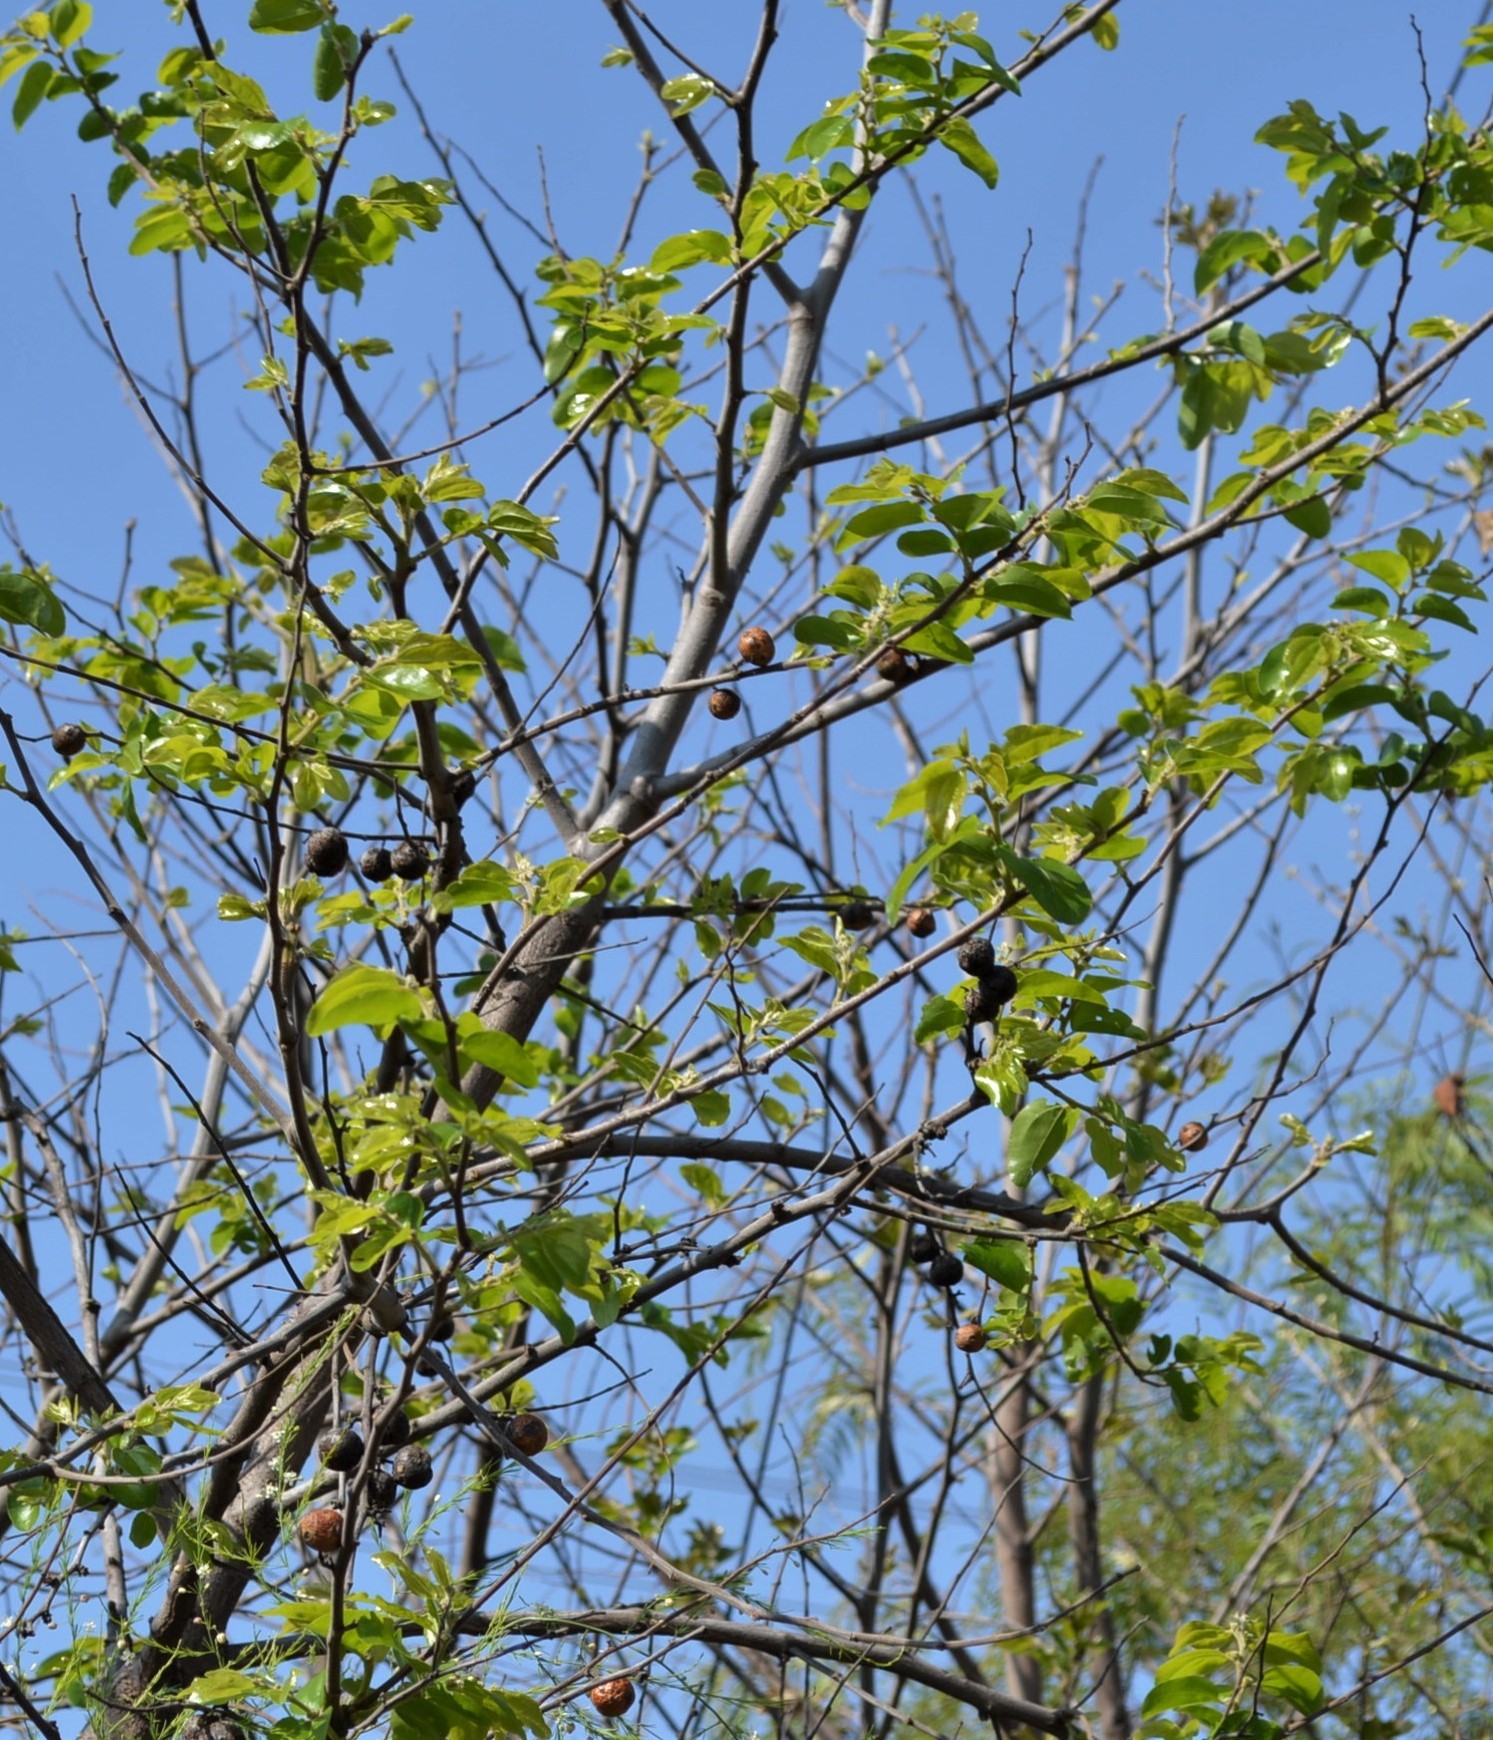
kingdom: Plantae
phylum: Tracheophyta
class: Magnoliopsida
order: Rosales
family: Rhamnaceae
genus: Ziziphus
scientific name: Ziziphus mucronata
